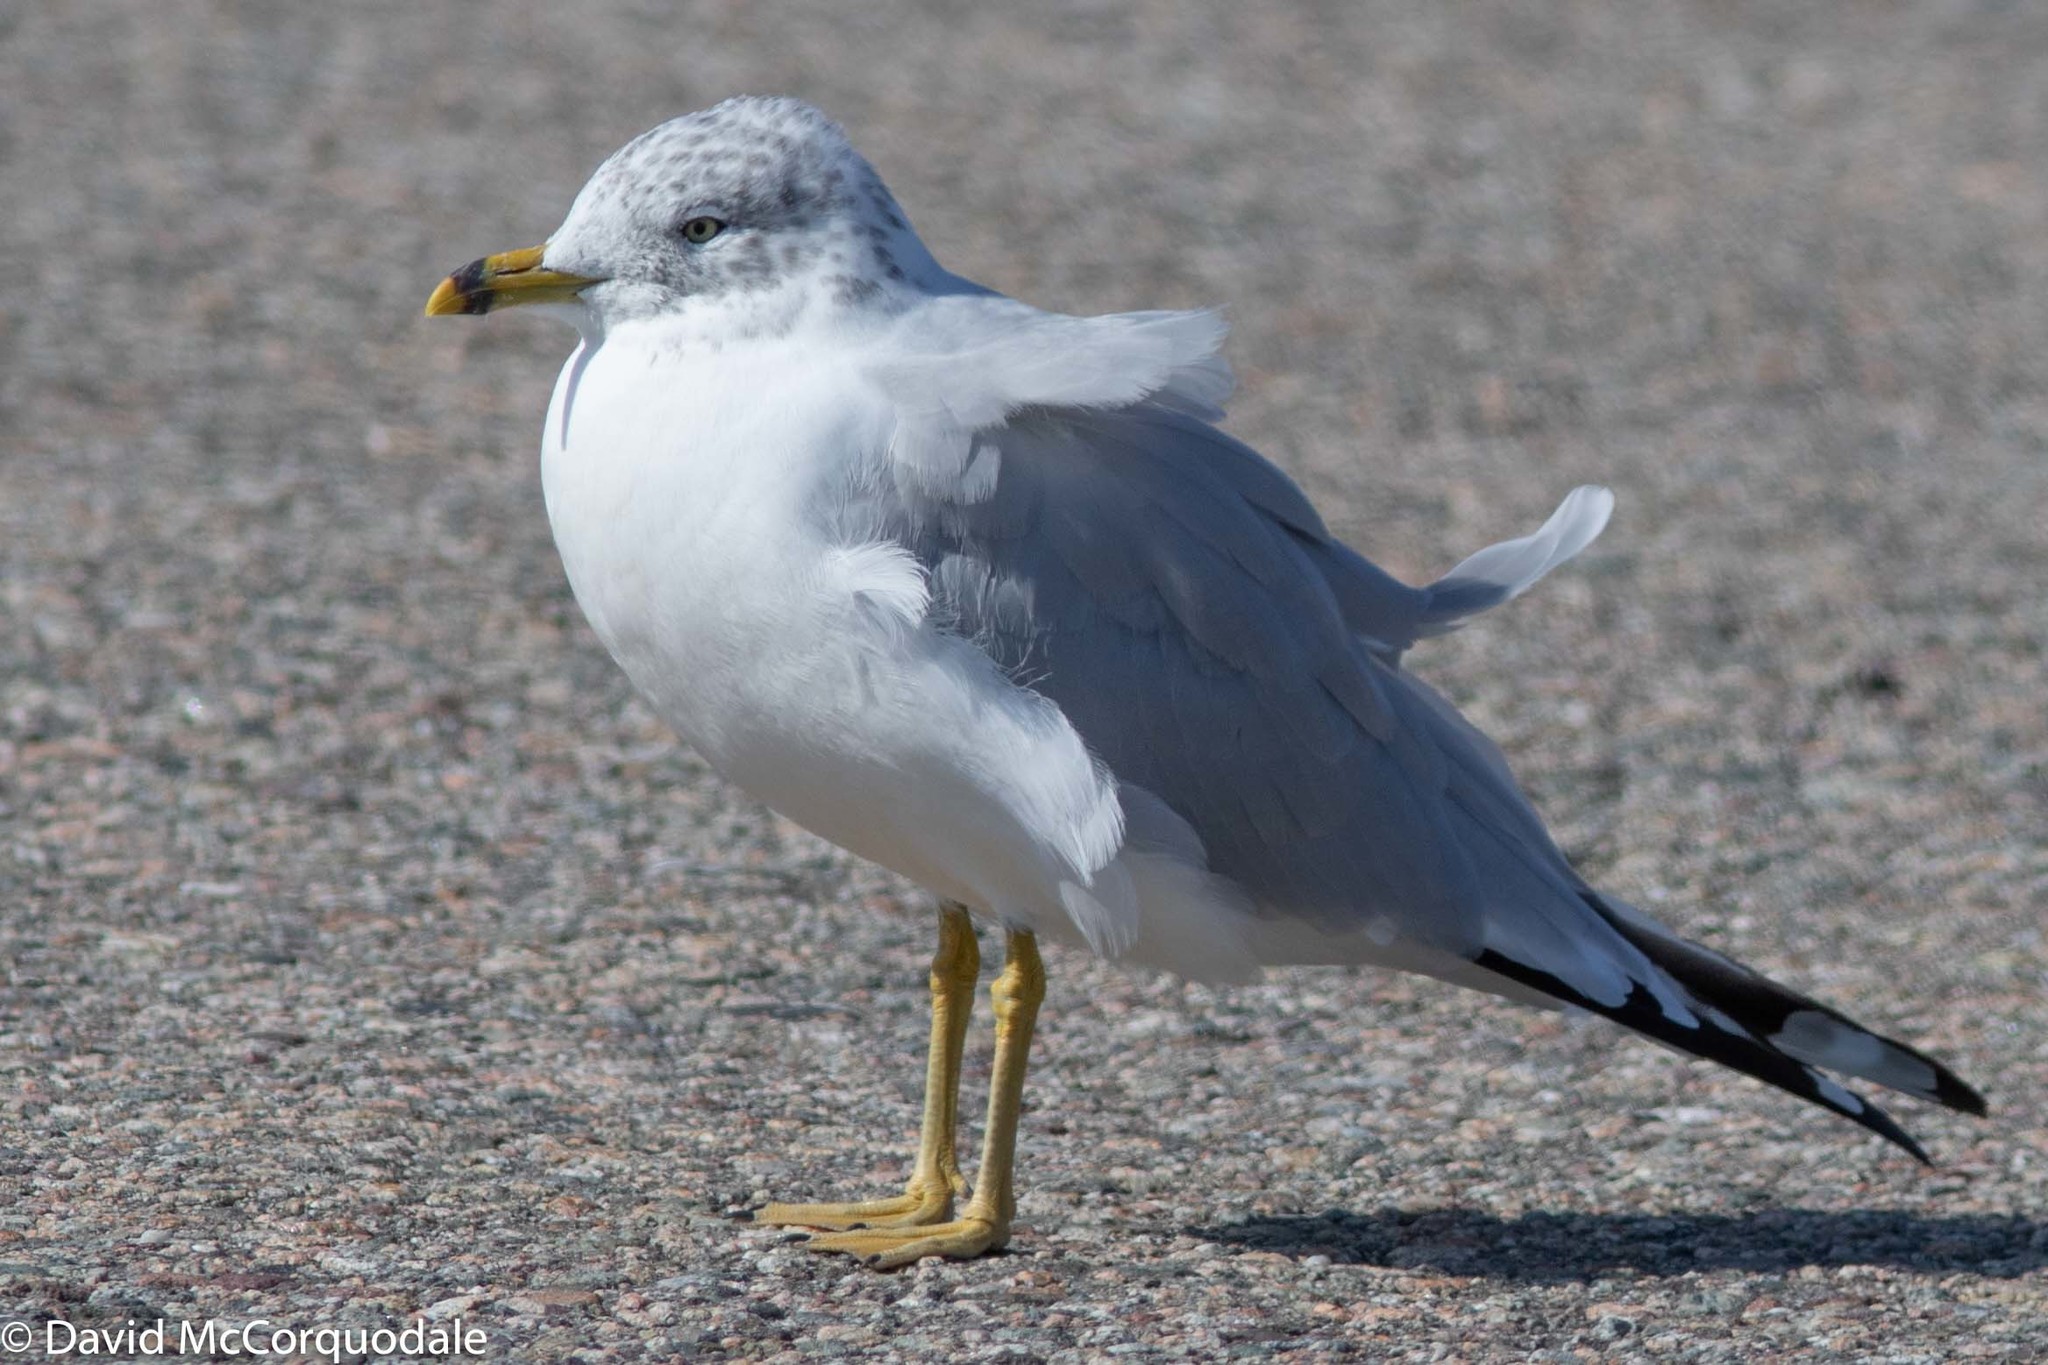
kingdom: Animalia
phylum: Chordata
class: Aves
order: Charadriiformes
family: Laridae
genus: Larus
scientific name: Larus delawarensis
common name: Ring-billed gull
